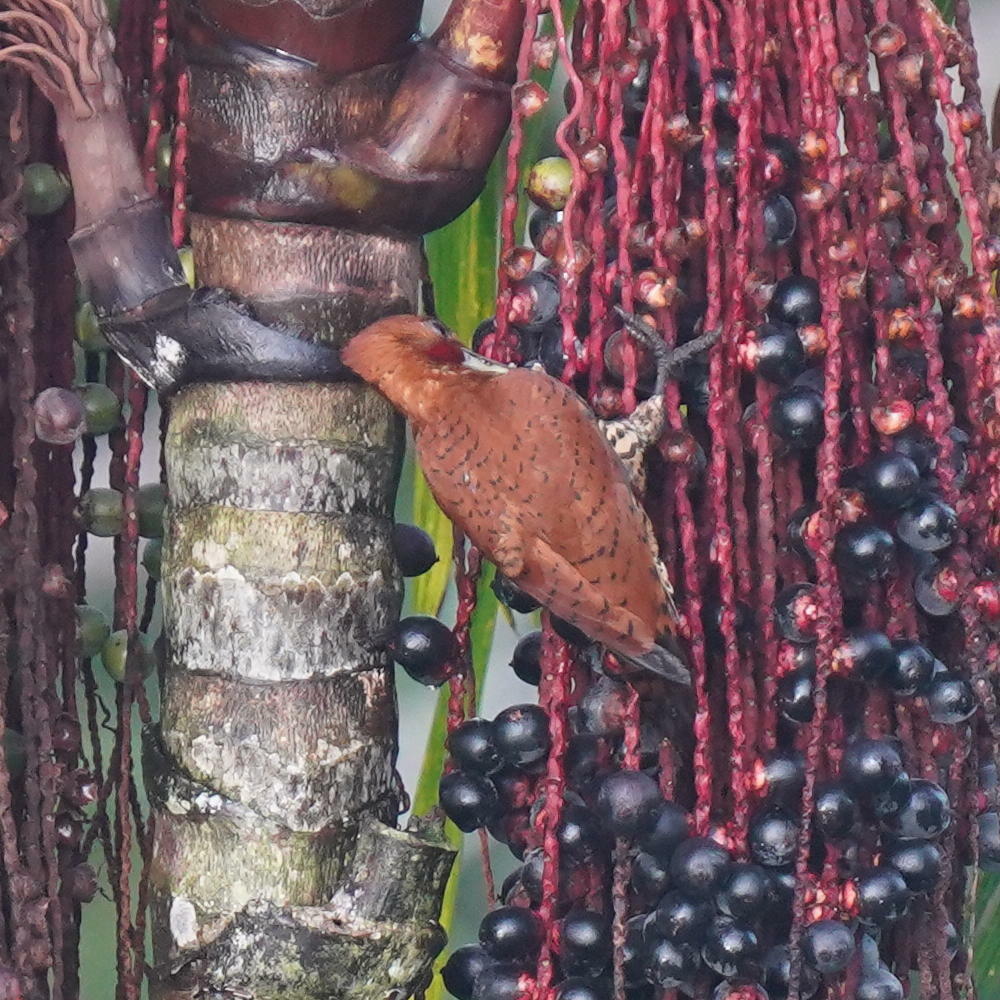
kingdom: Animalia
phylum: Chordata
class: Aves
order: Piciformes
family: Picidae
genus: Celeus
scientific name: Celeus loricatus
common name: Cinnamon woodpecker
